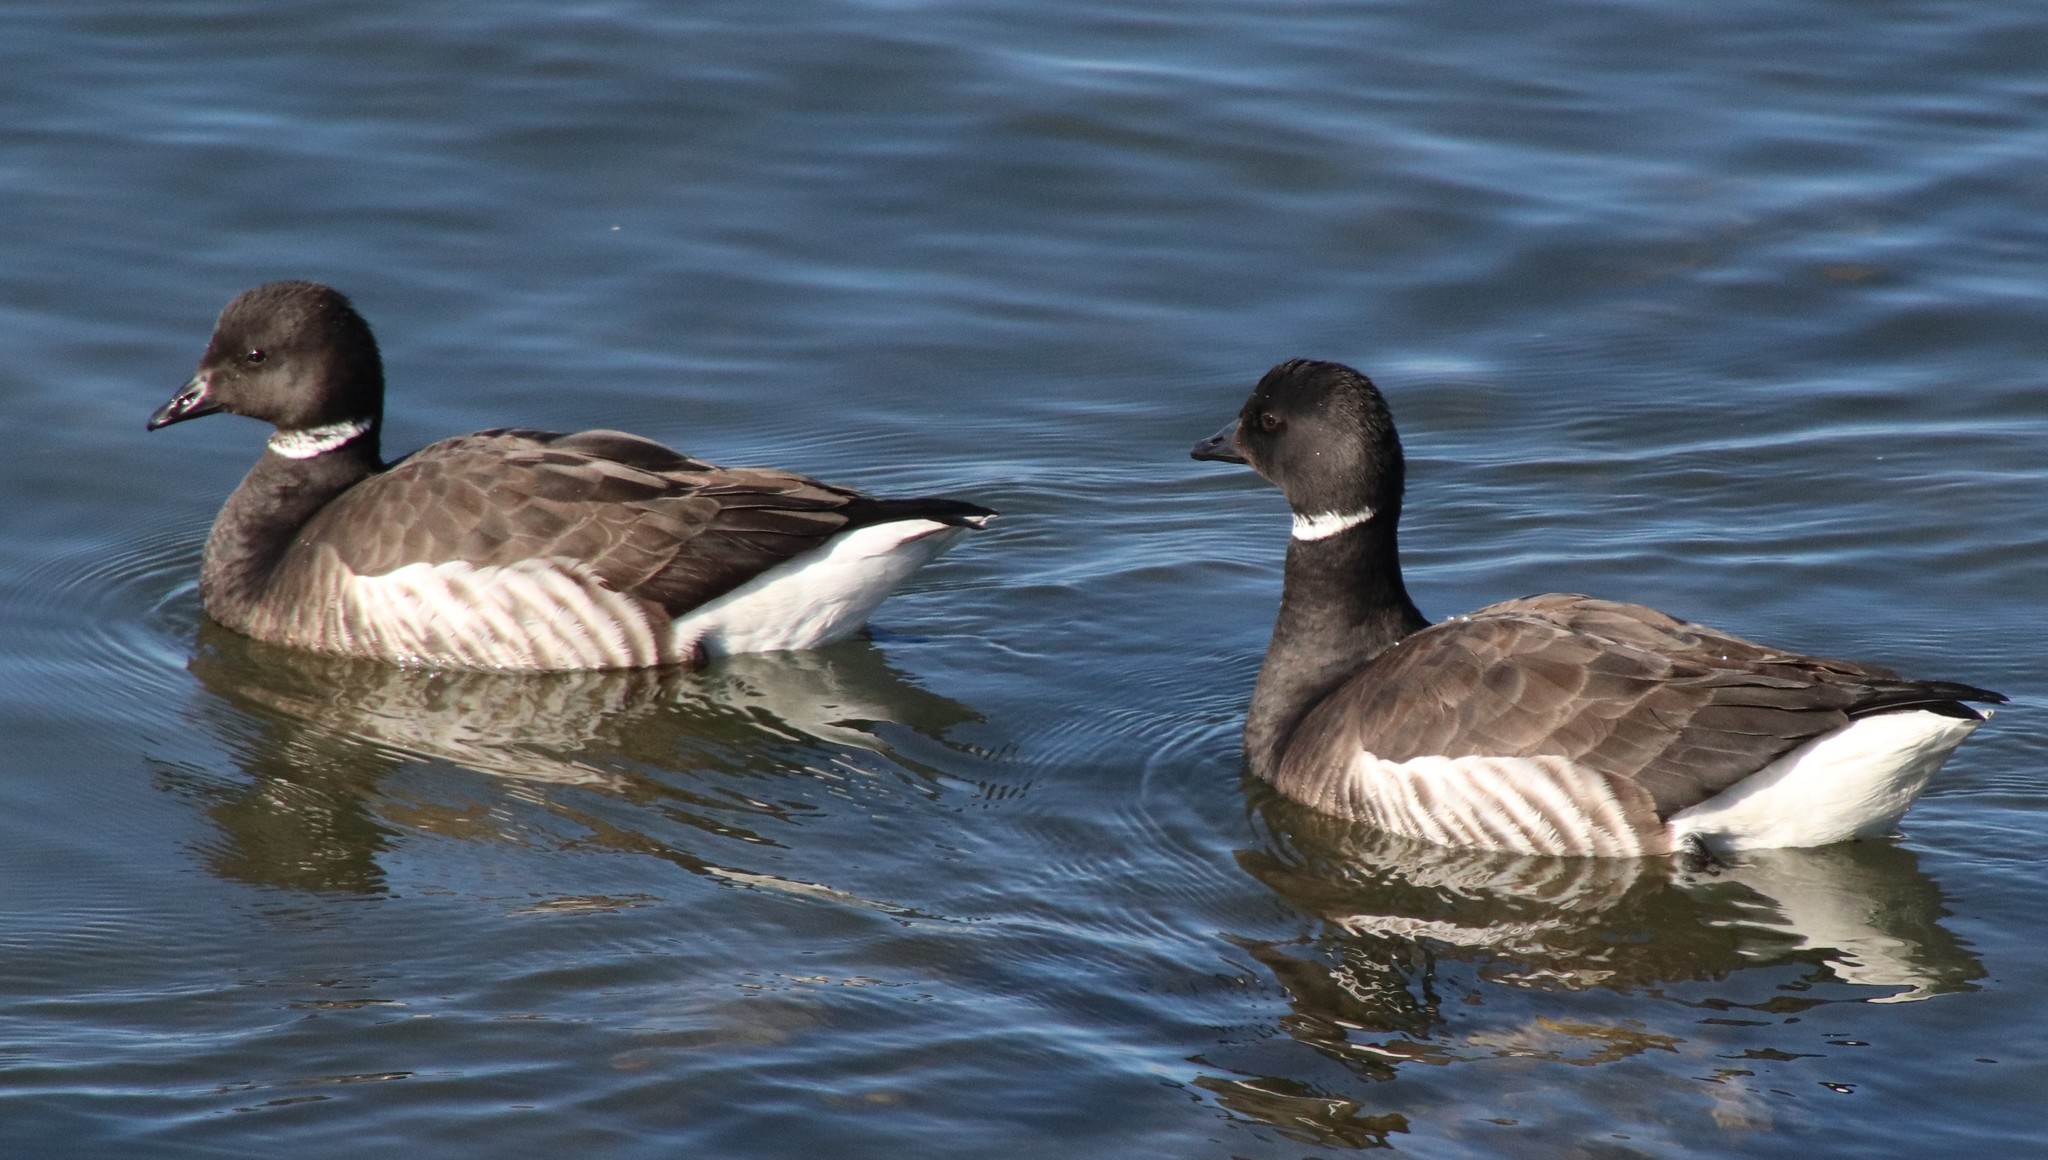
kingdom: Animalia
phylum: Chordata
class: Aves
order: Anseriformes
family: Anatidae
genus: Branta
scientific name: Branta bernicla
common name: Brant goose
